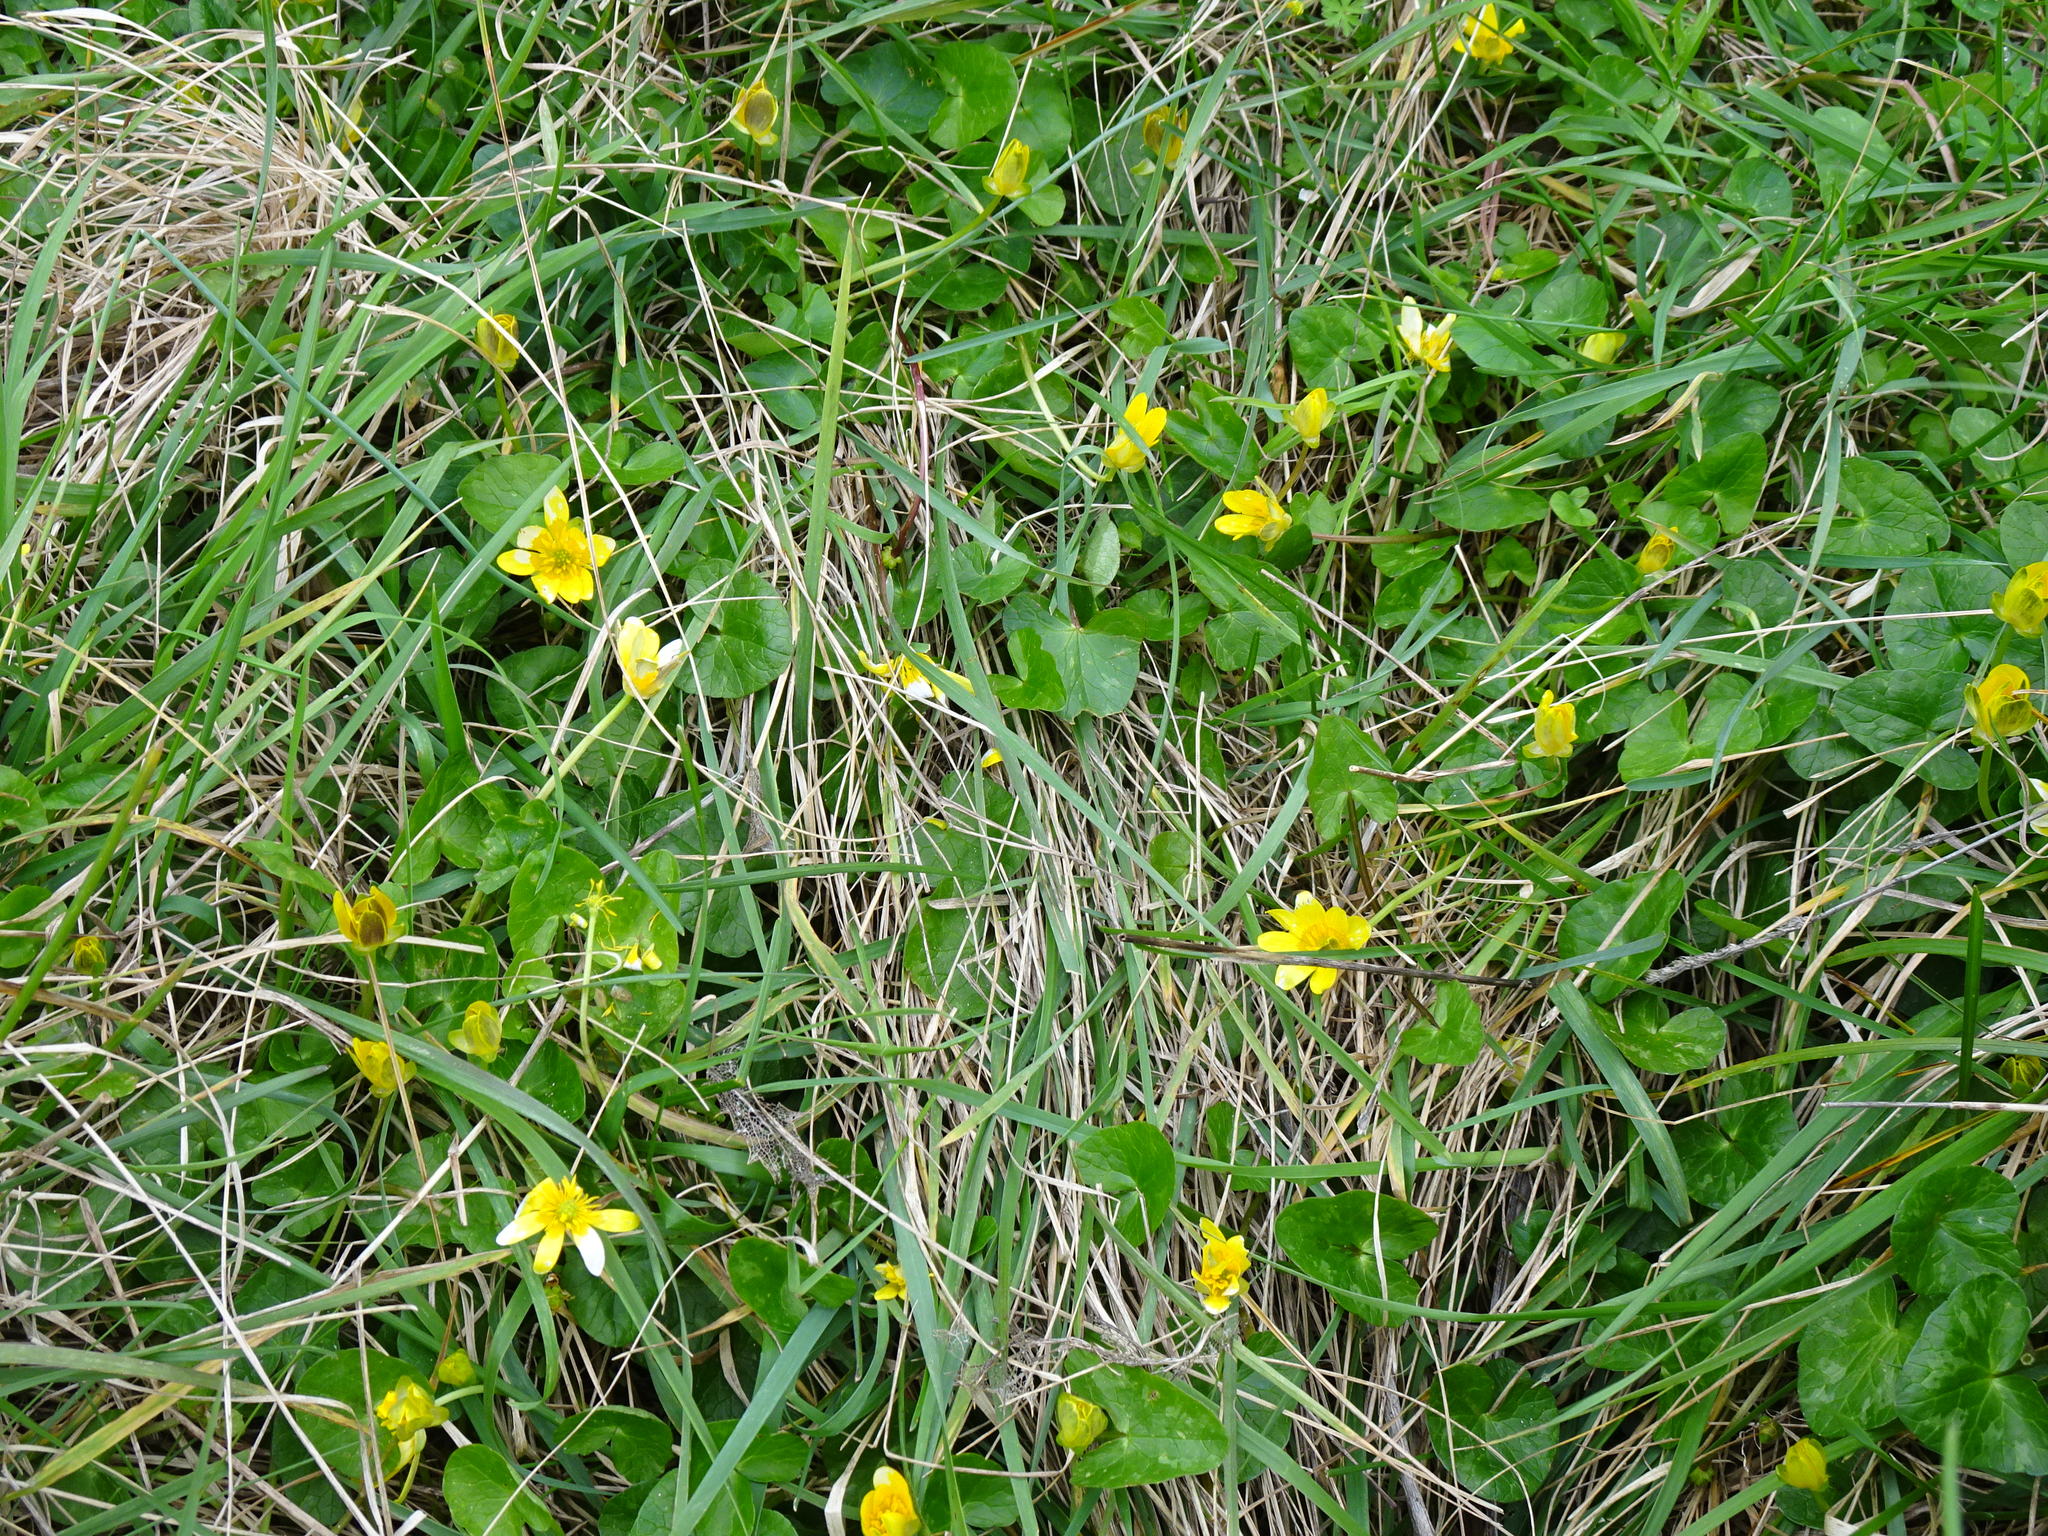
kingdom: Plantae
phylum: Tracheophyta
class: Magnoliopsida
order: Ranunculales
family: Ranunculaceae
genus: Ficaria
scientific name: Ficaria verna
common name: Lesser celandine
